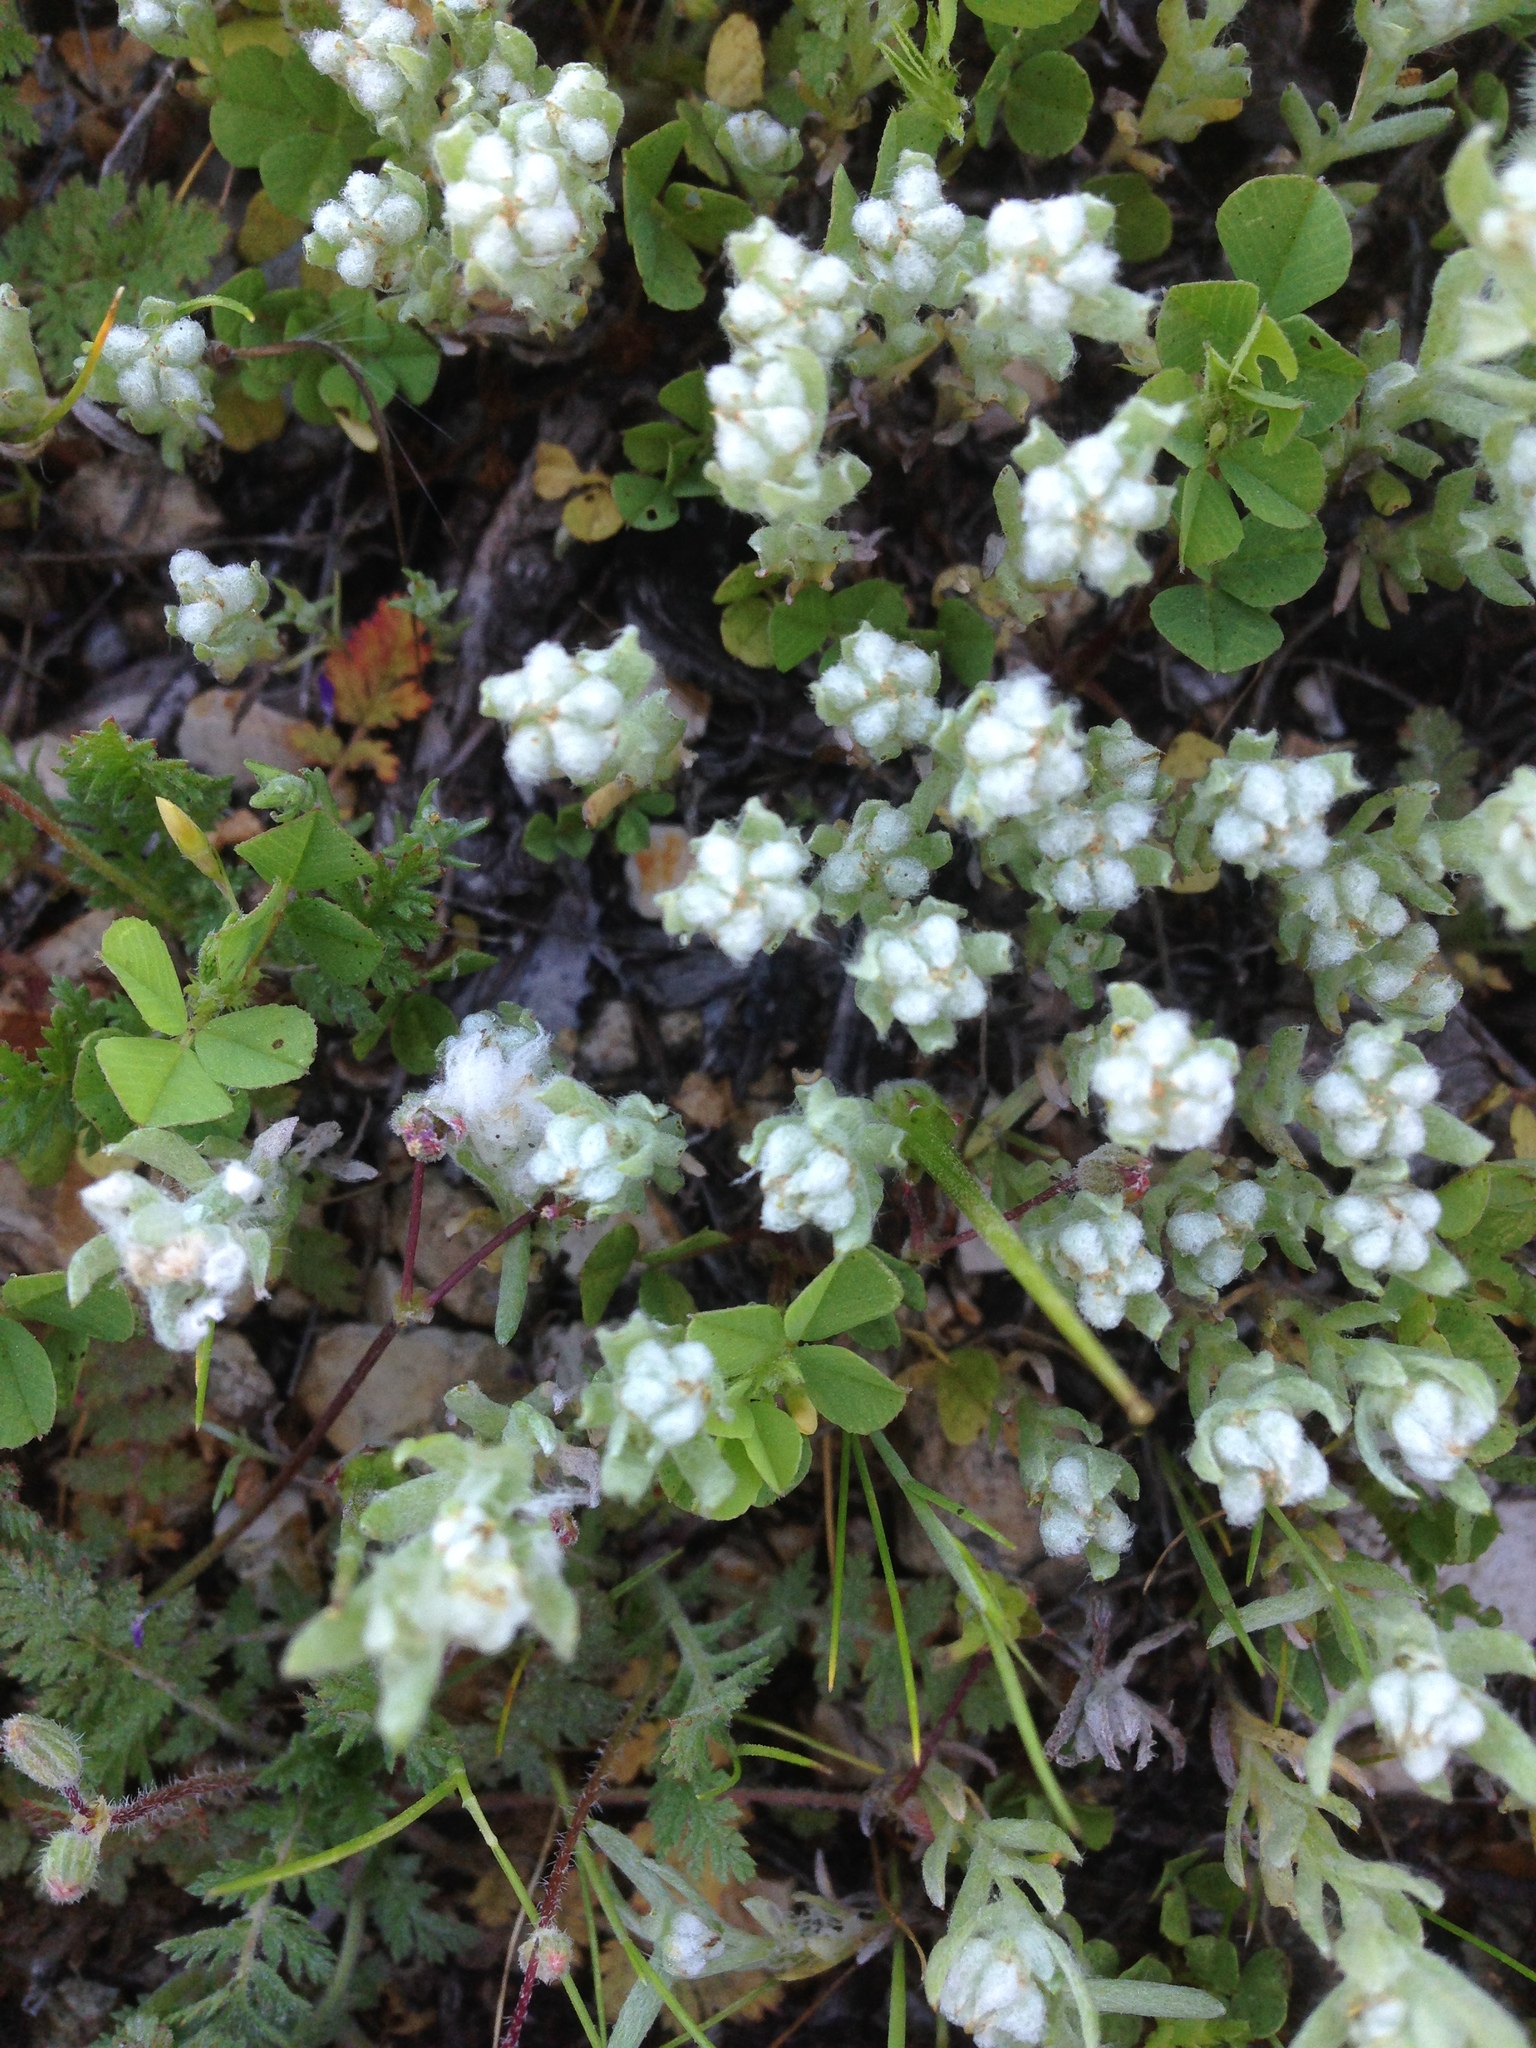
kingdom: Plantae
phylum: Tracheophyta
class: Magnoliopsida
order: Asterales
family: Asteraceae
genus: Bombycilaena
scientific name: Bombycilaena californica
